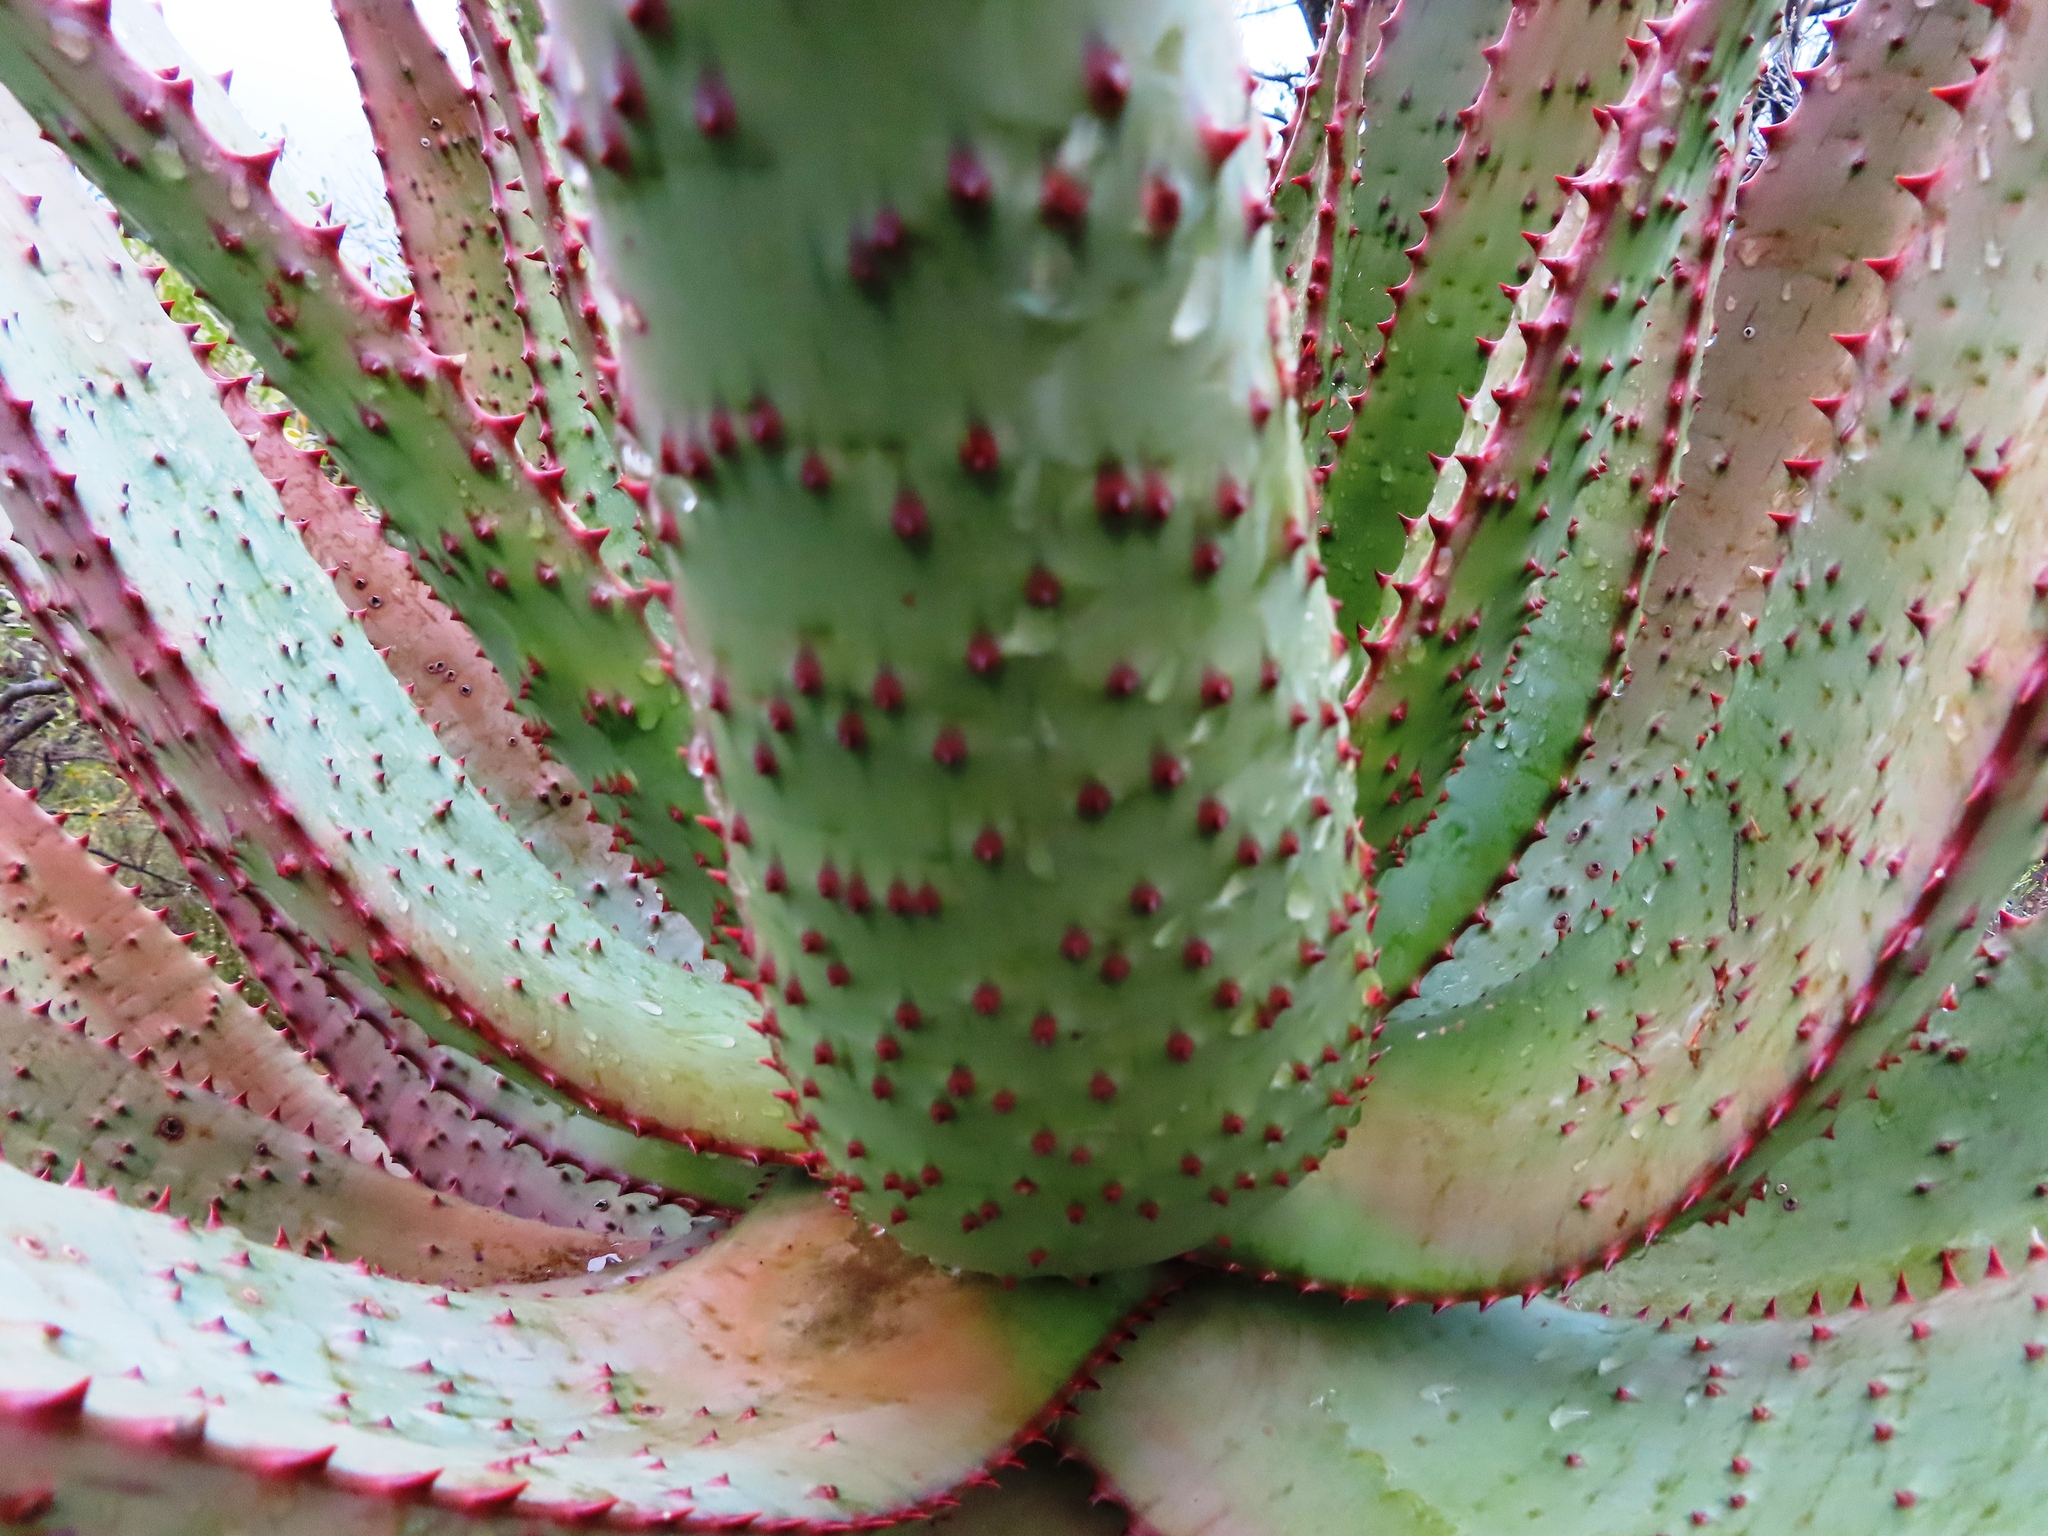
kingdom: Plantae
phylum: Tracheophyta
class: Liliopsida
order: Asparagales
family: Asphodelaceae
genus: Aloe
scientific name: Aloe ferox
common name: Bitter aloe
